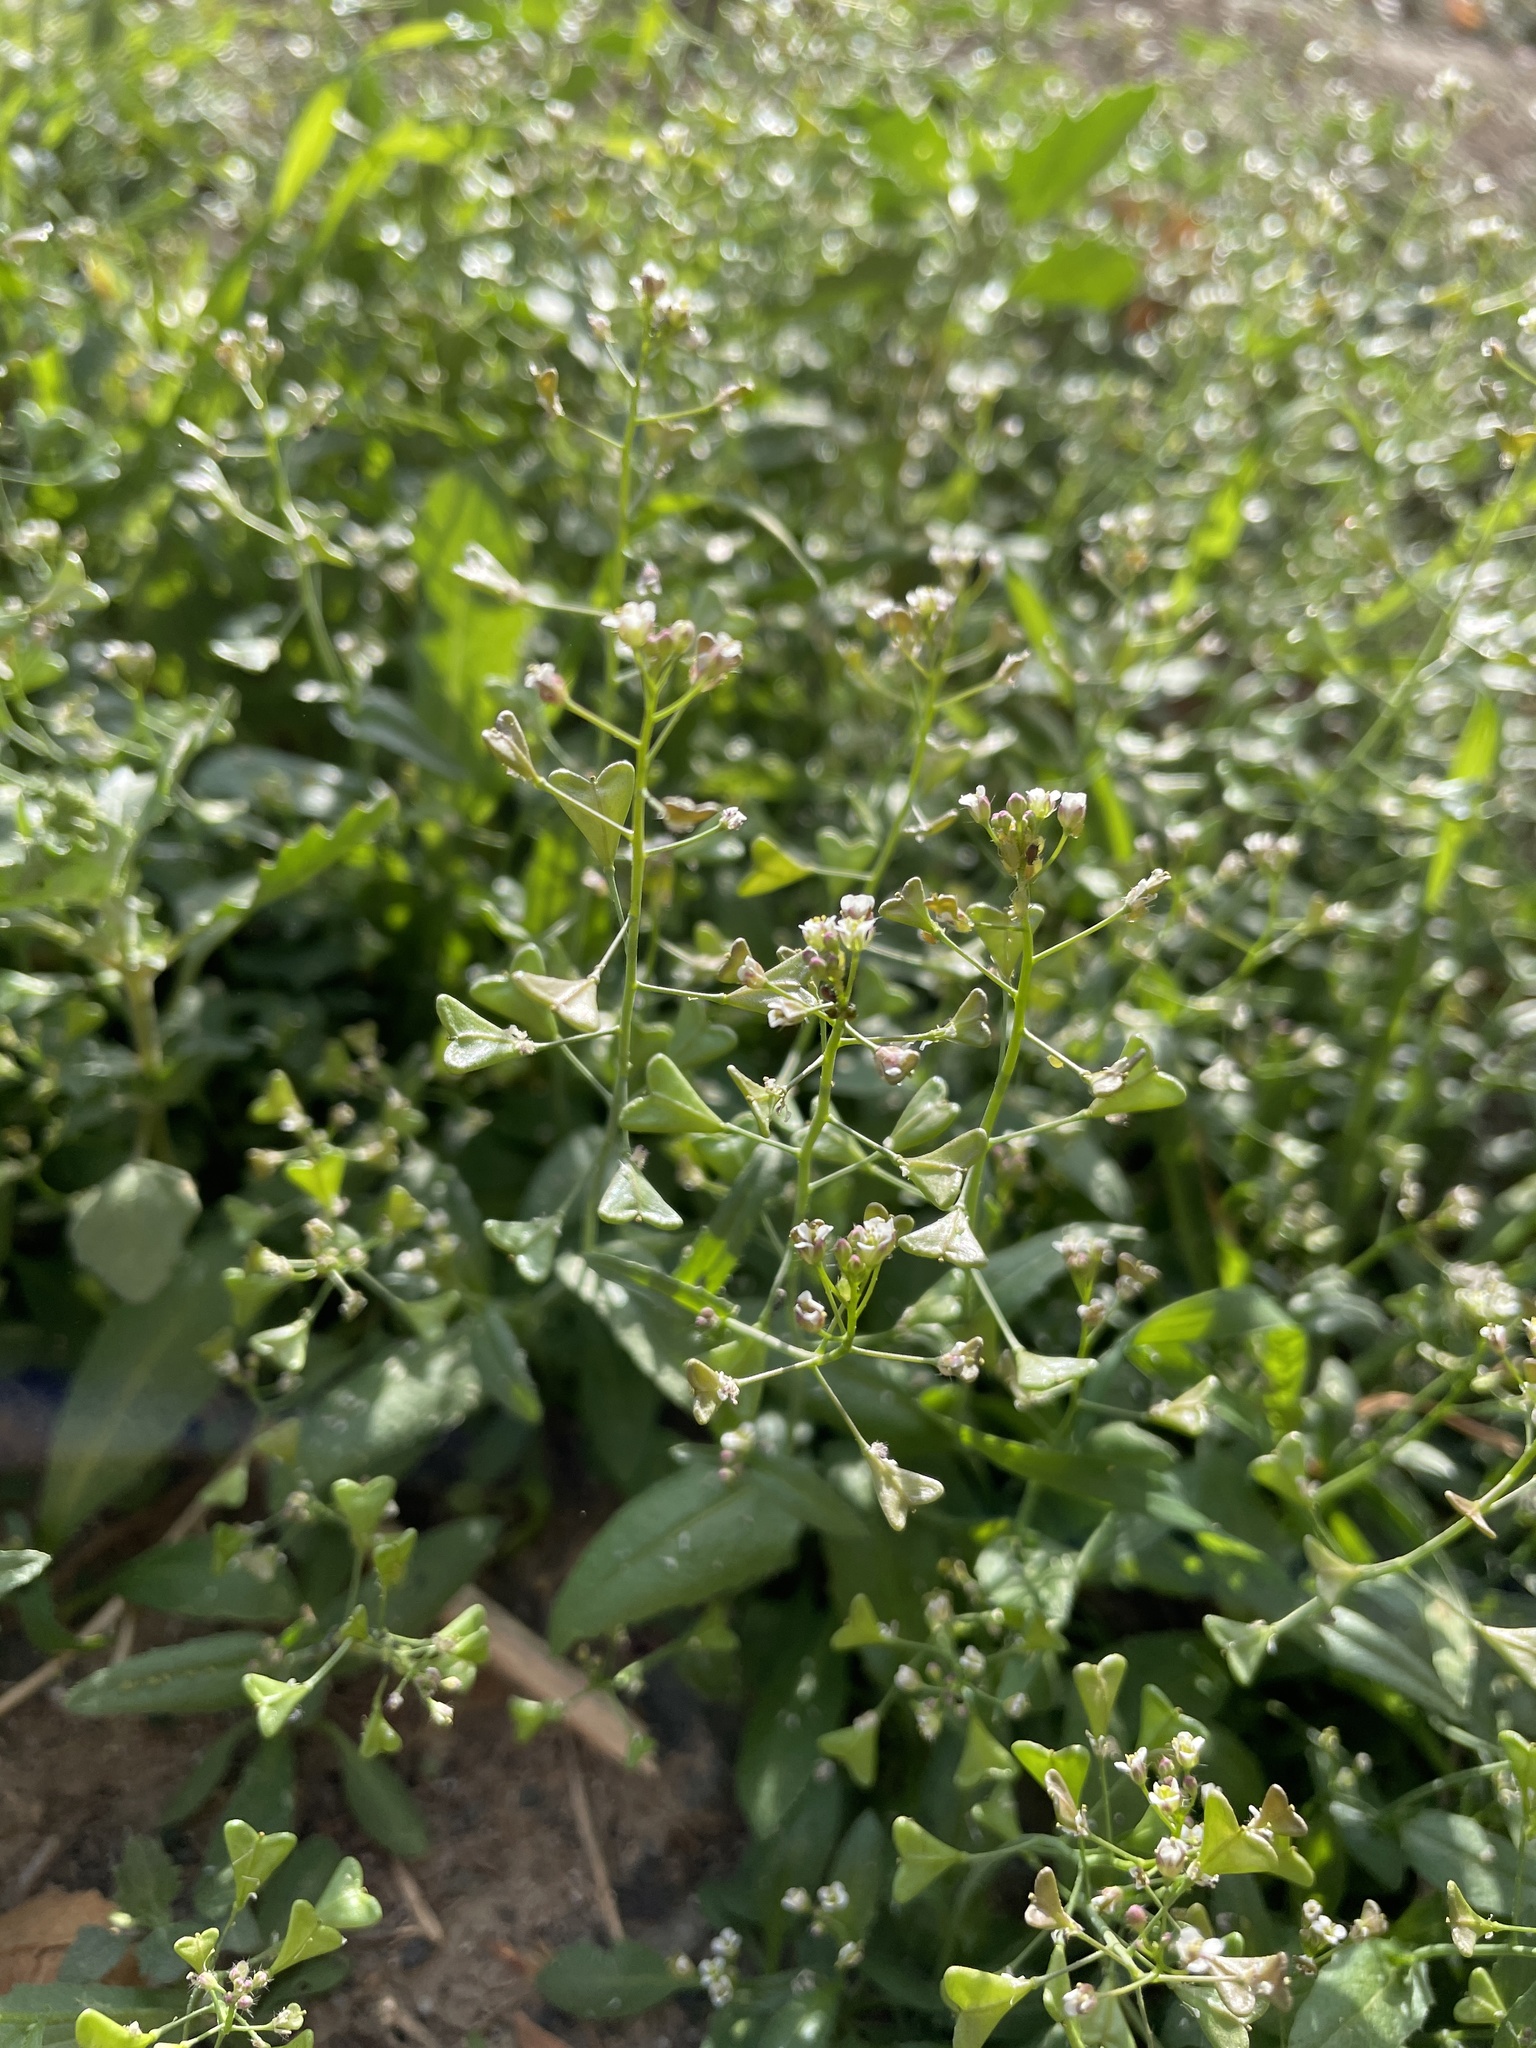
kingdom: Plantae
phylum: Tracheophyta
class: Magnoliopsida
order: Brassicales
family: Brassicaceae
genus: Capsella
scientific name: Capsella bursa-pastoris
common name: Shepherd's purse
